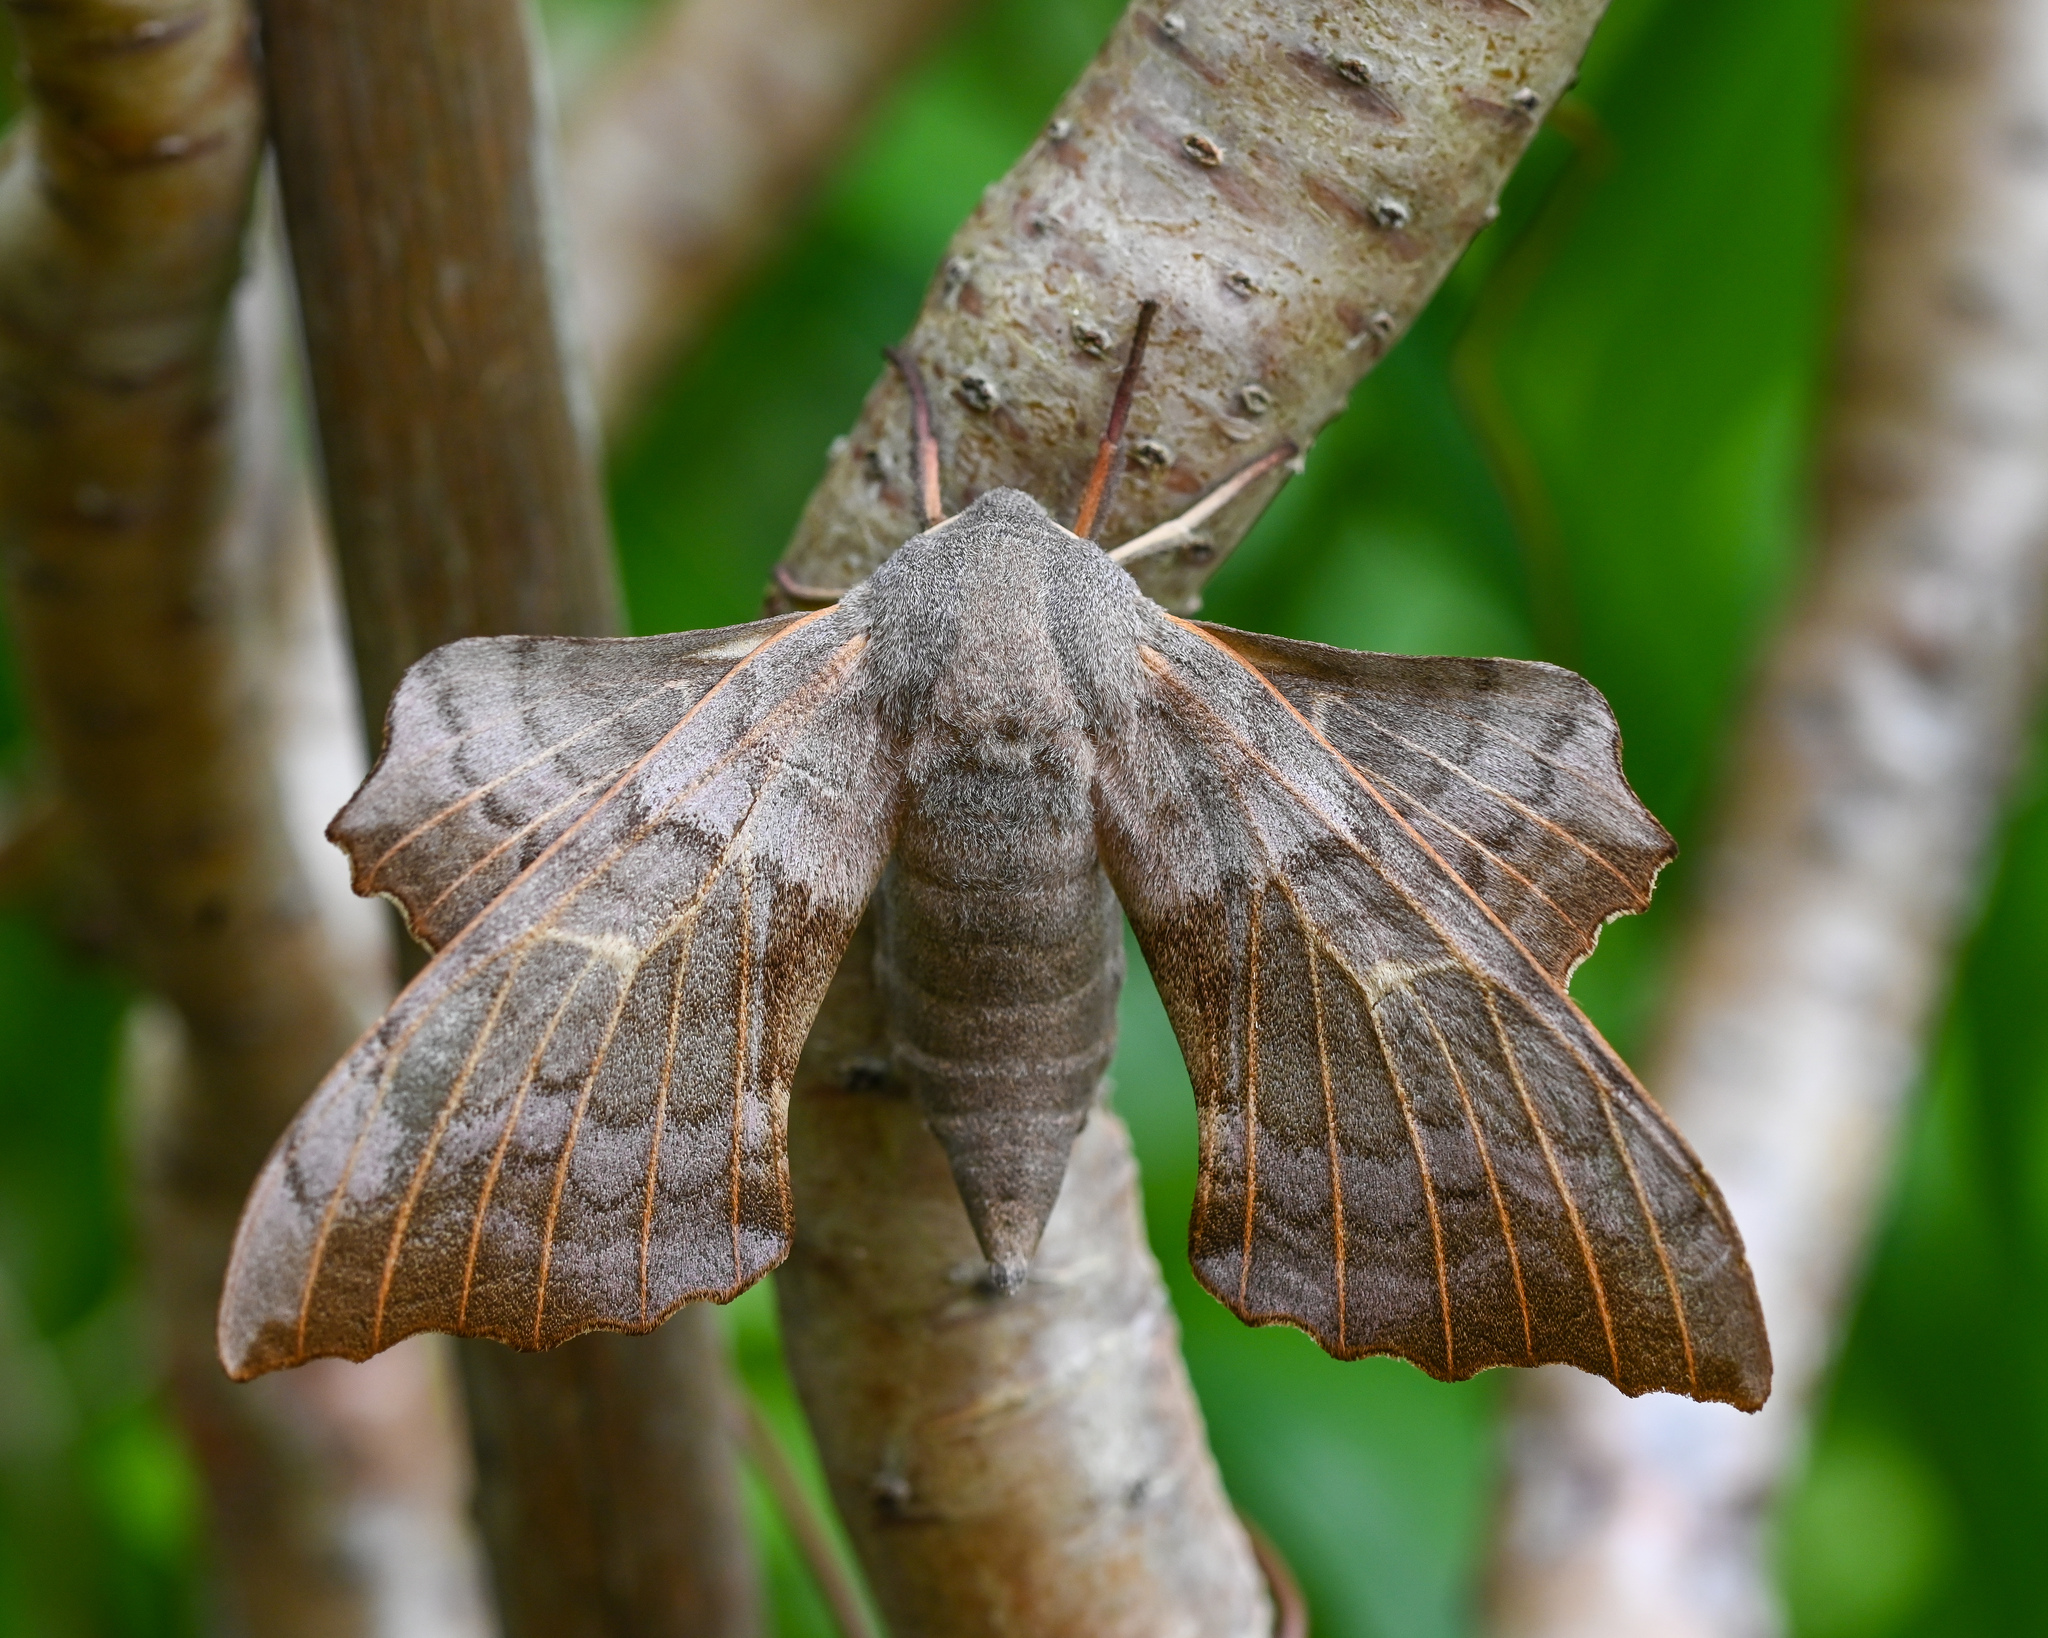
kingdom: Animalia
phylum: Arthropoda
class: Insecta
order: Lepidoptera
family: Sphingidae
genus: Laothoe
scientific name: Laothoe populi
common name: Poplar hawk-moth
